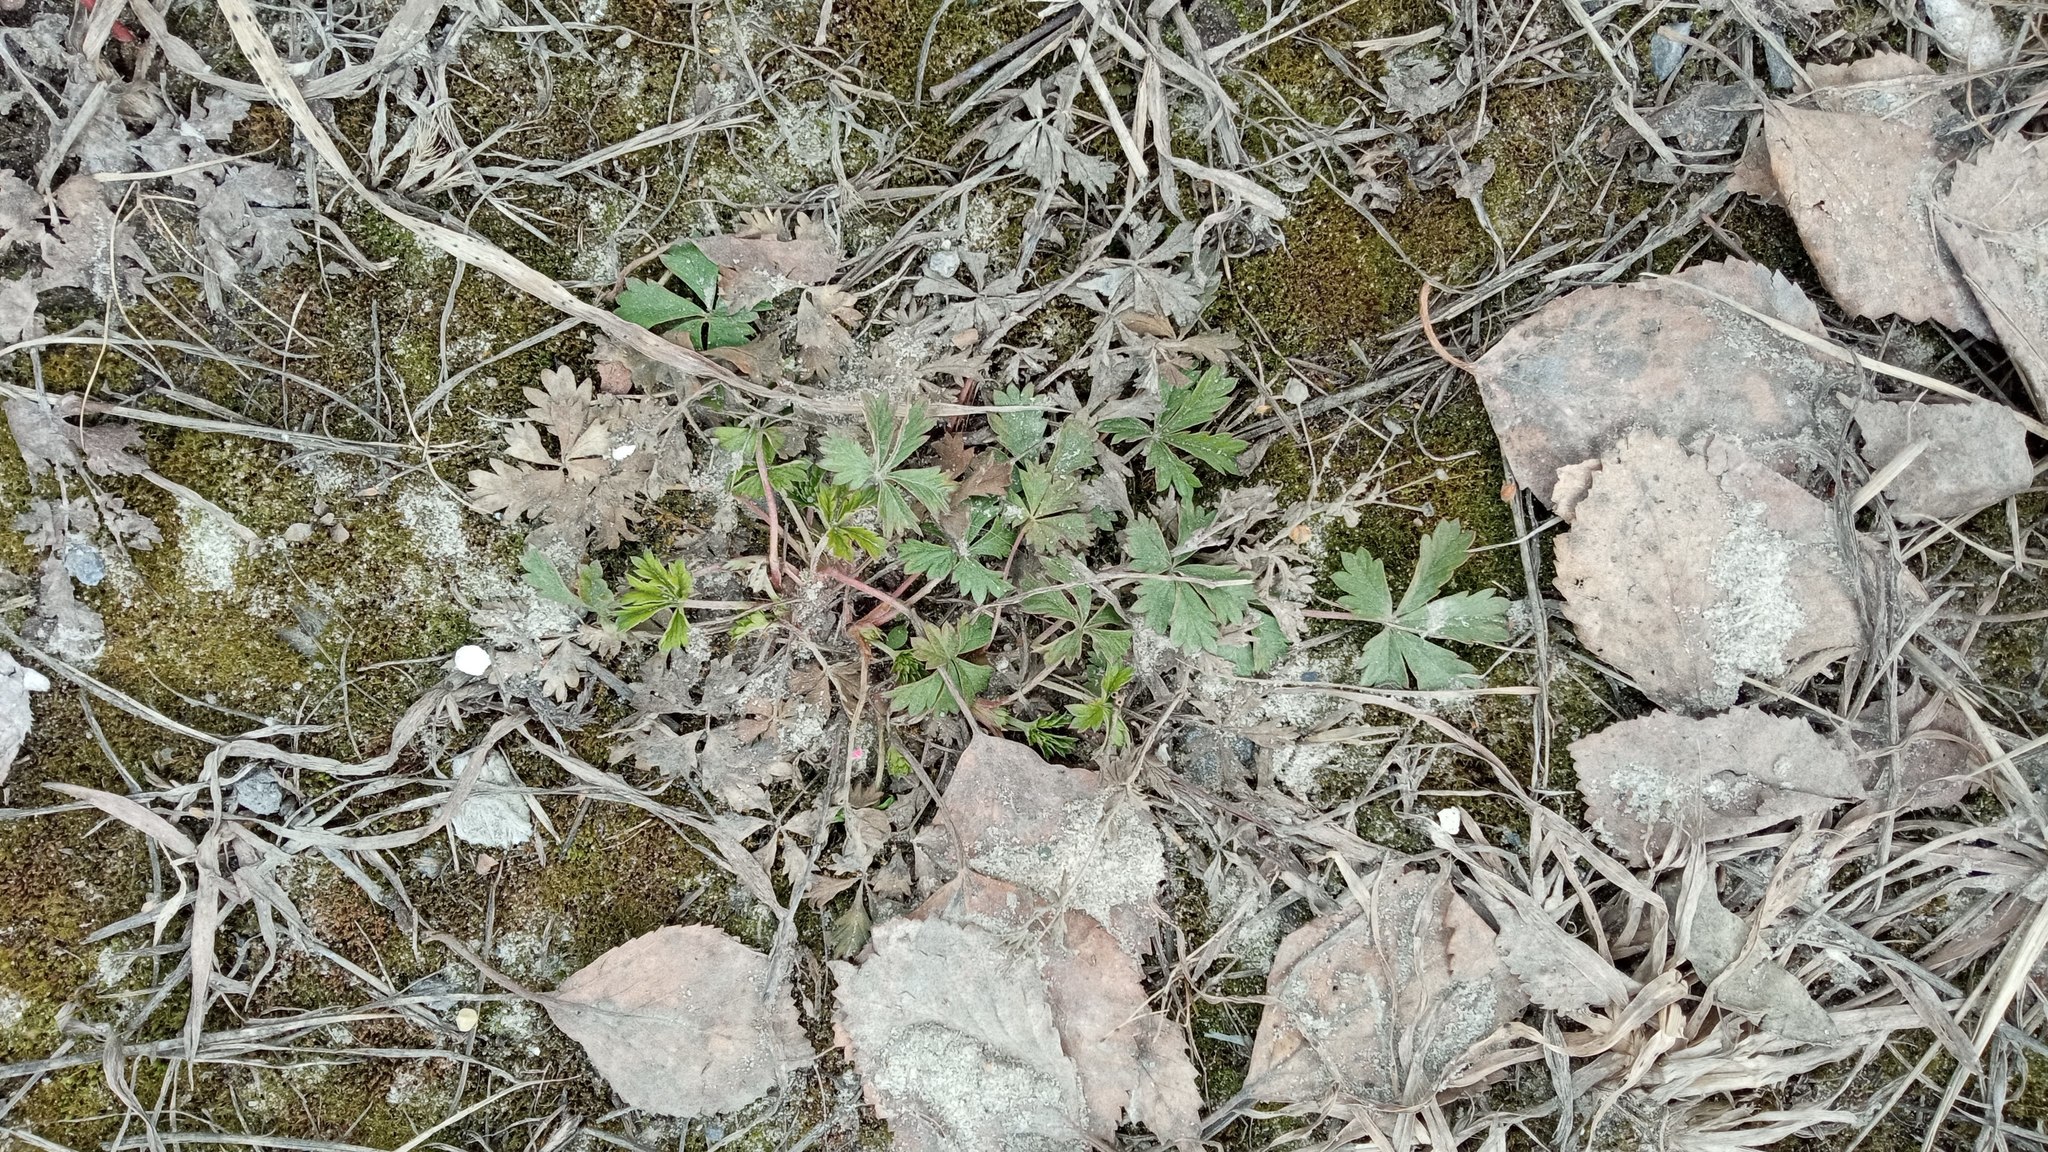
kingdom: Plantae
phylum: Tracheophyta
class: Magnoliopsida
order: Rosales
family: Rosaceae
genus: Potentilla
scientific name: Potentilla argentea
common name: Hoary cinquefoil
